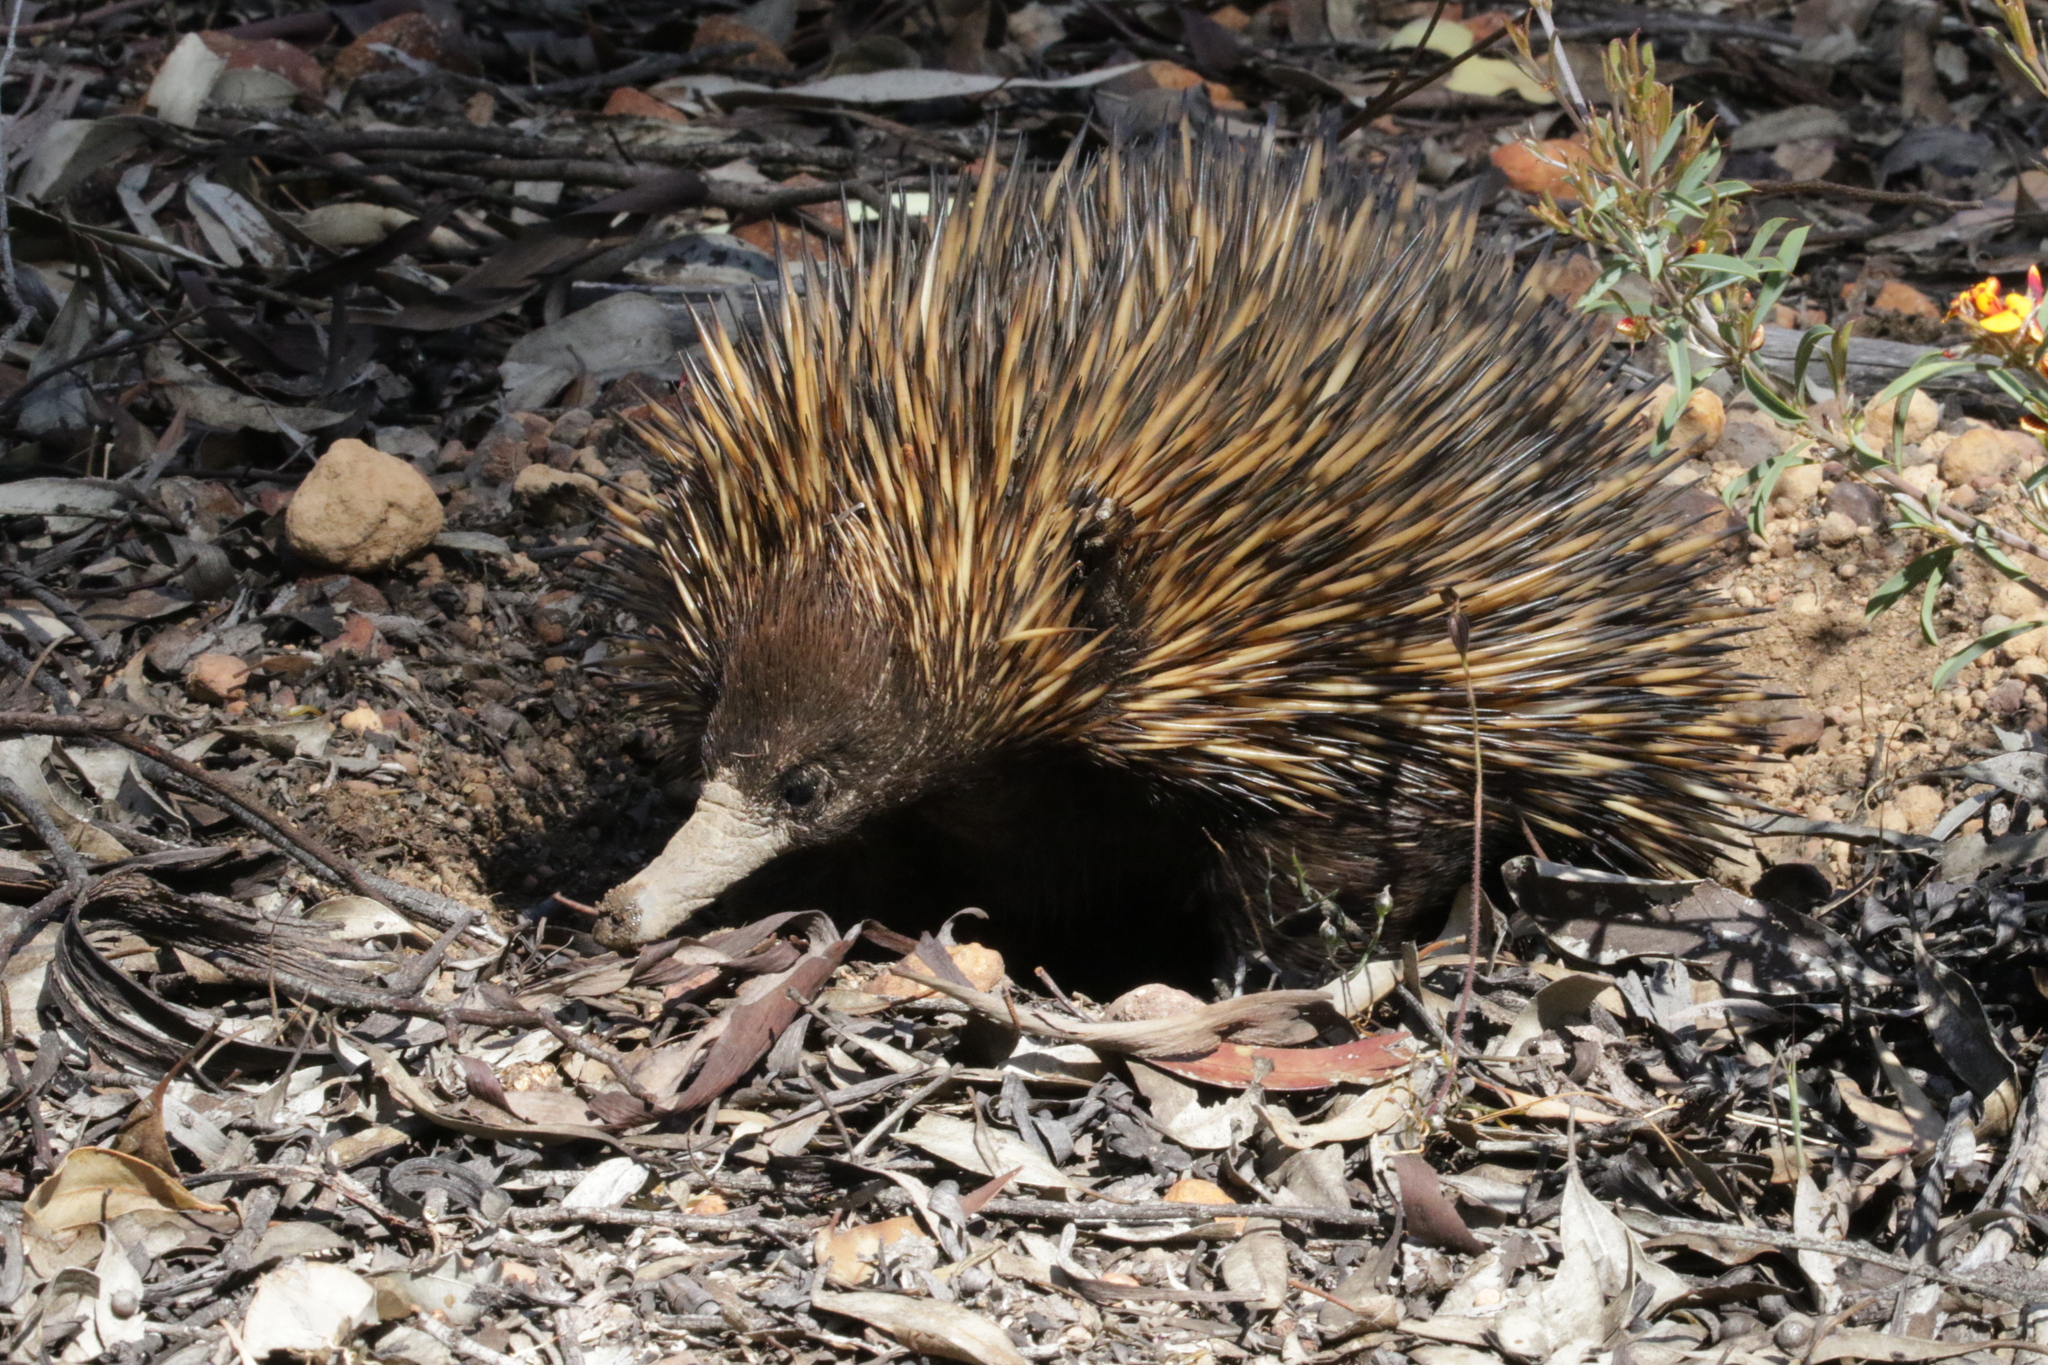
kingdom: Animalia
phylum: Chordata
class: Mammalia
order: Monotremata
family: Tachyglossidae
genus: Tachyglossus
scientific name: Tachyglossus aculeatus
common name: Short-beaked echidna
